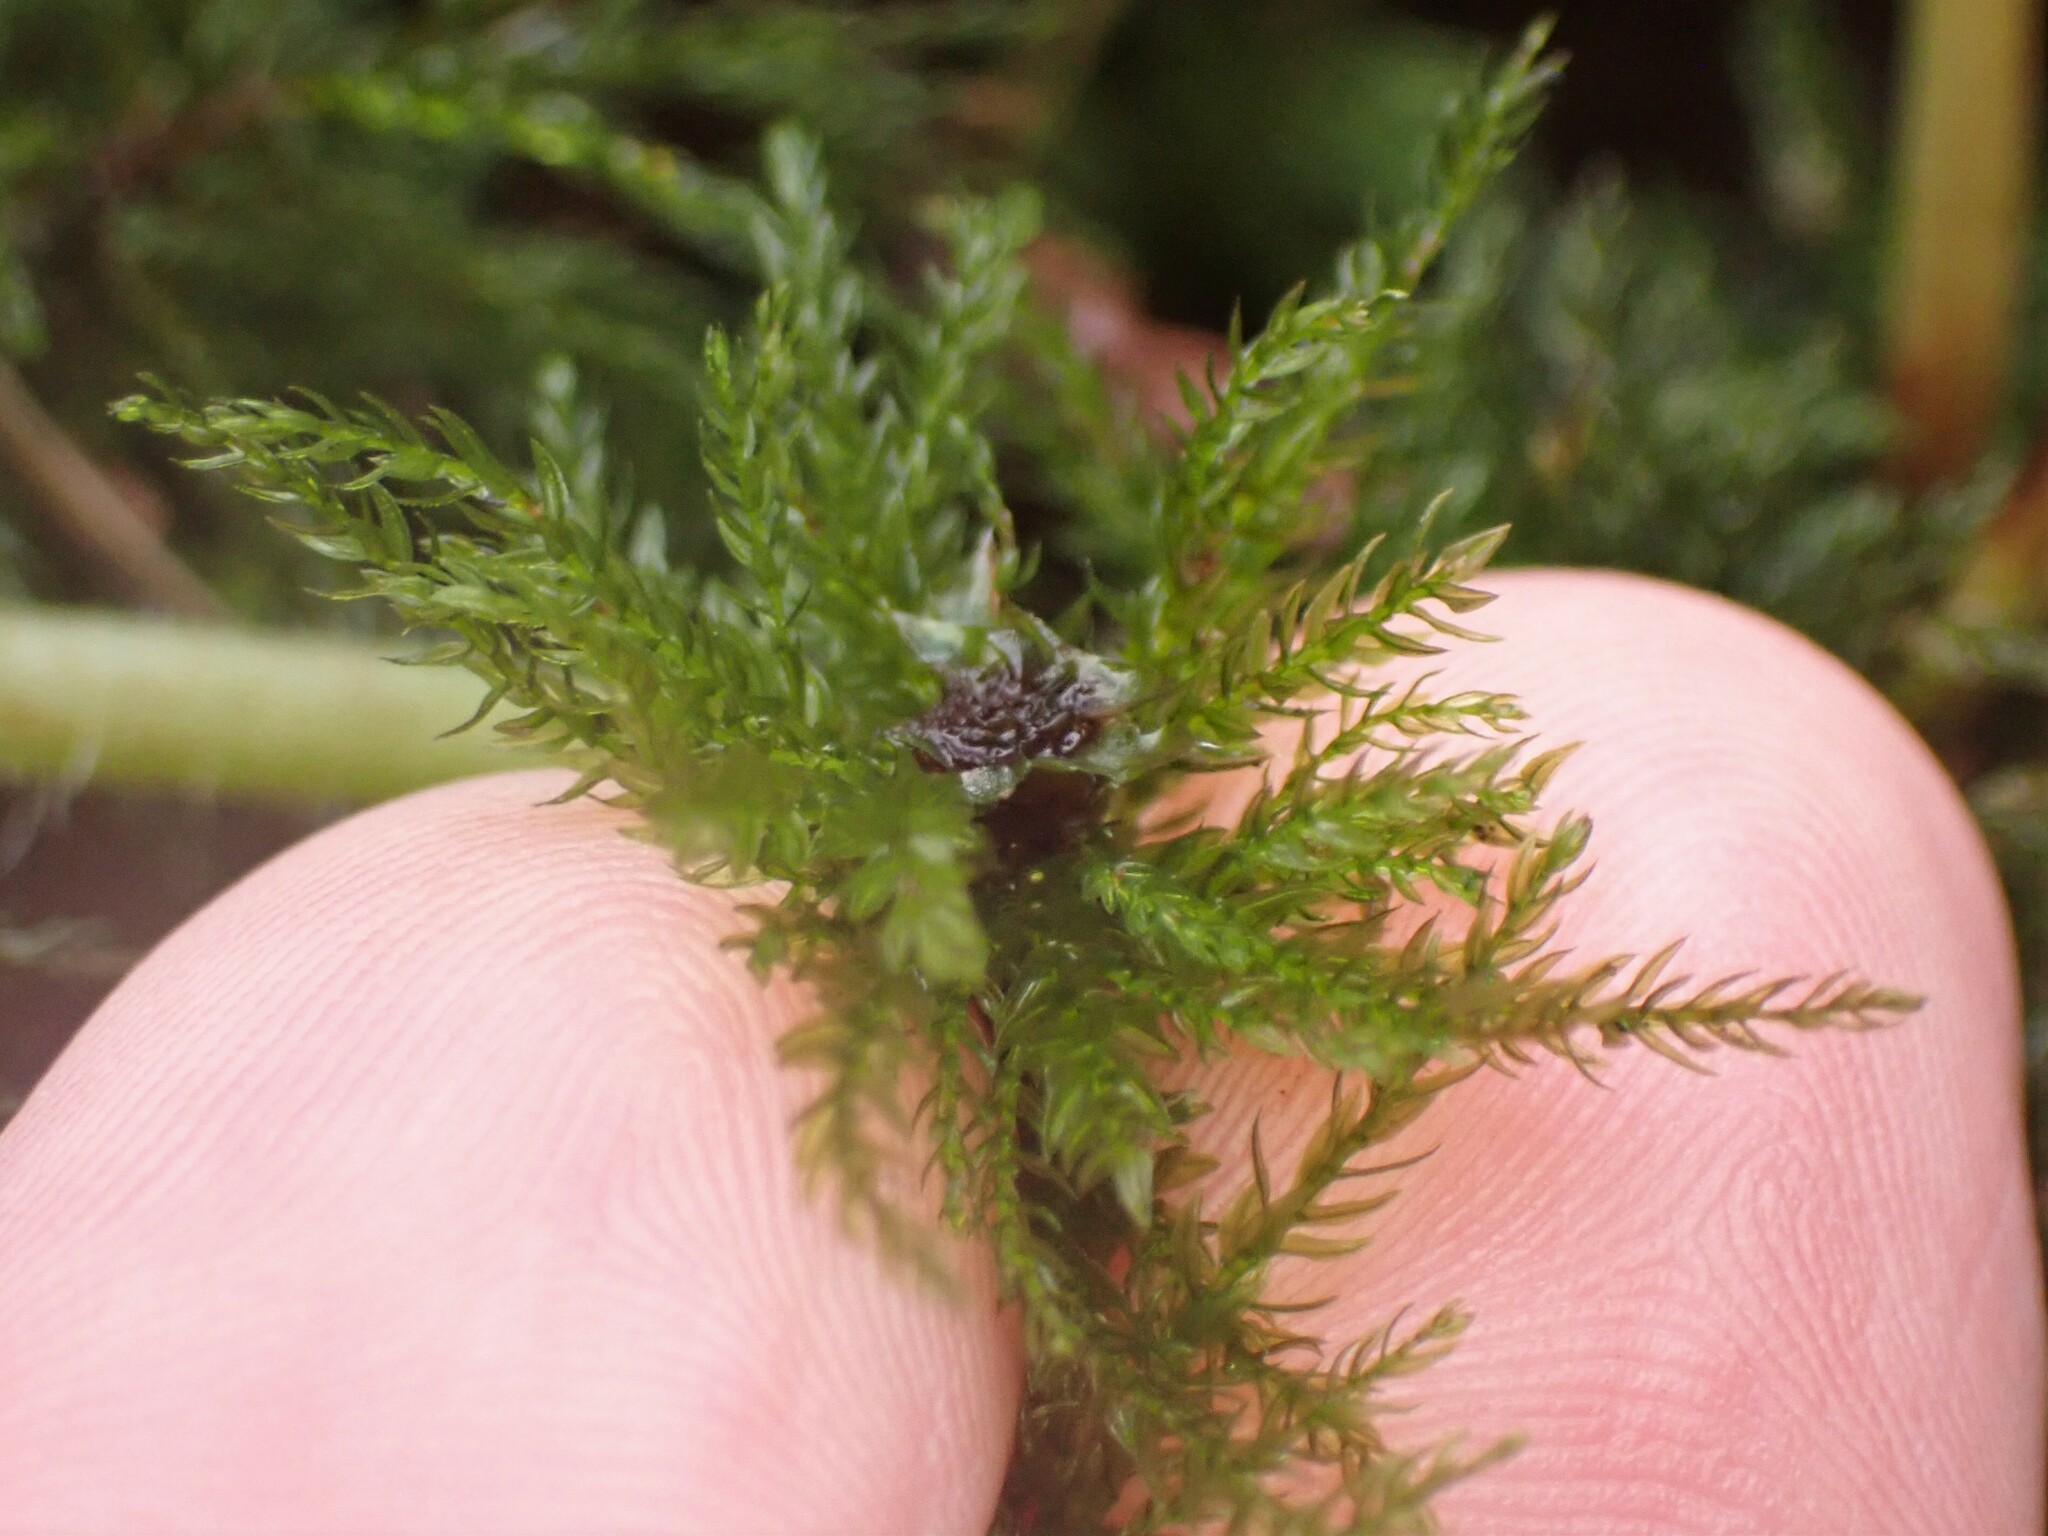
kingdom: Plantae
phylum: Bryophyta
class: Bryopsida
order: Bryales
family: Mniaceae
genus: Leucolepis
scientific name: Leucolepis acanthoneura
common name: Leucolepis umbrella moss
